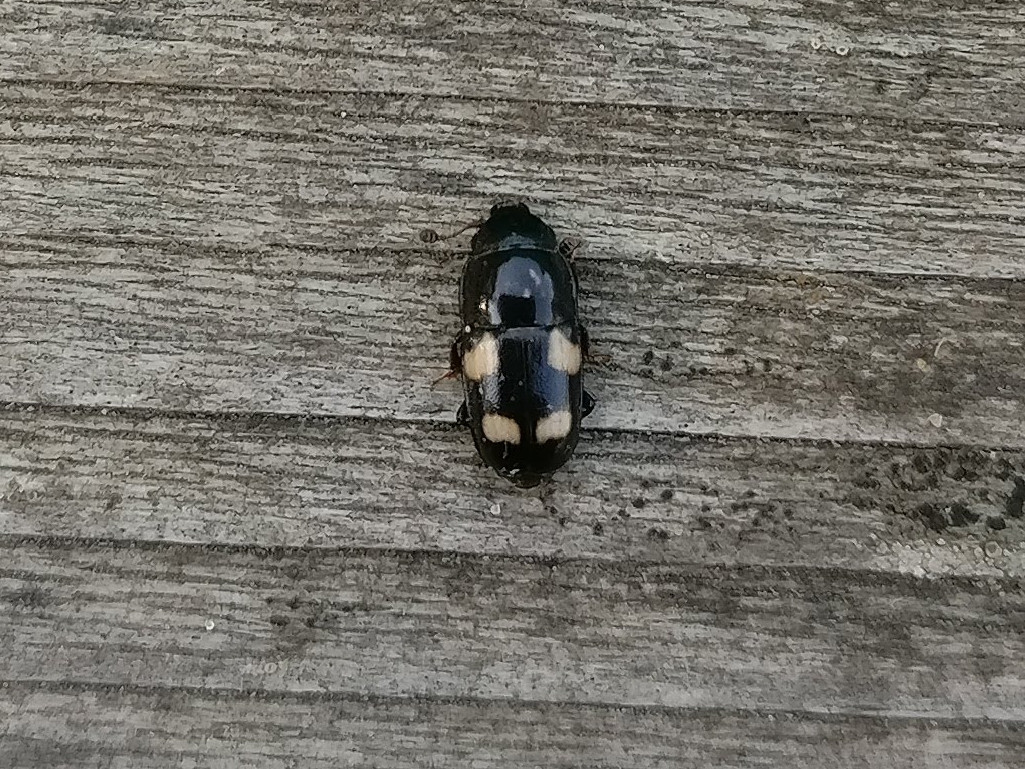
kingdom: Animalia
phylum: Arthropoda
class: Insecta
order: Coleoptera
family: Nitidulidae
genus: Glischrochilus
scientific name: Glischrochilus quadrisignatus
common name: Picnic beetle
